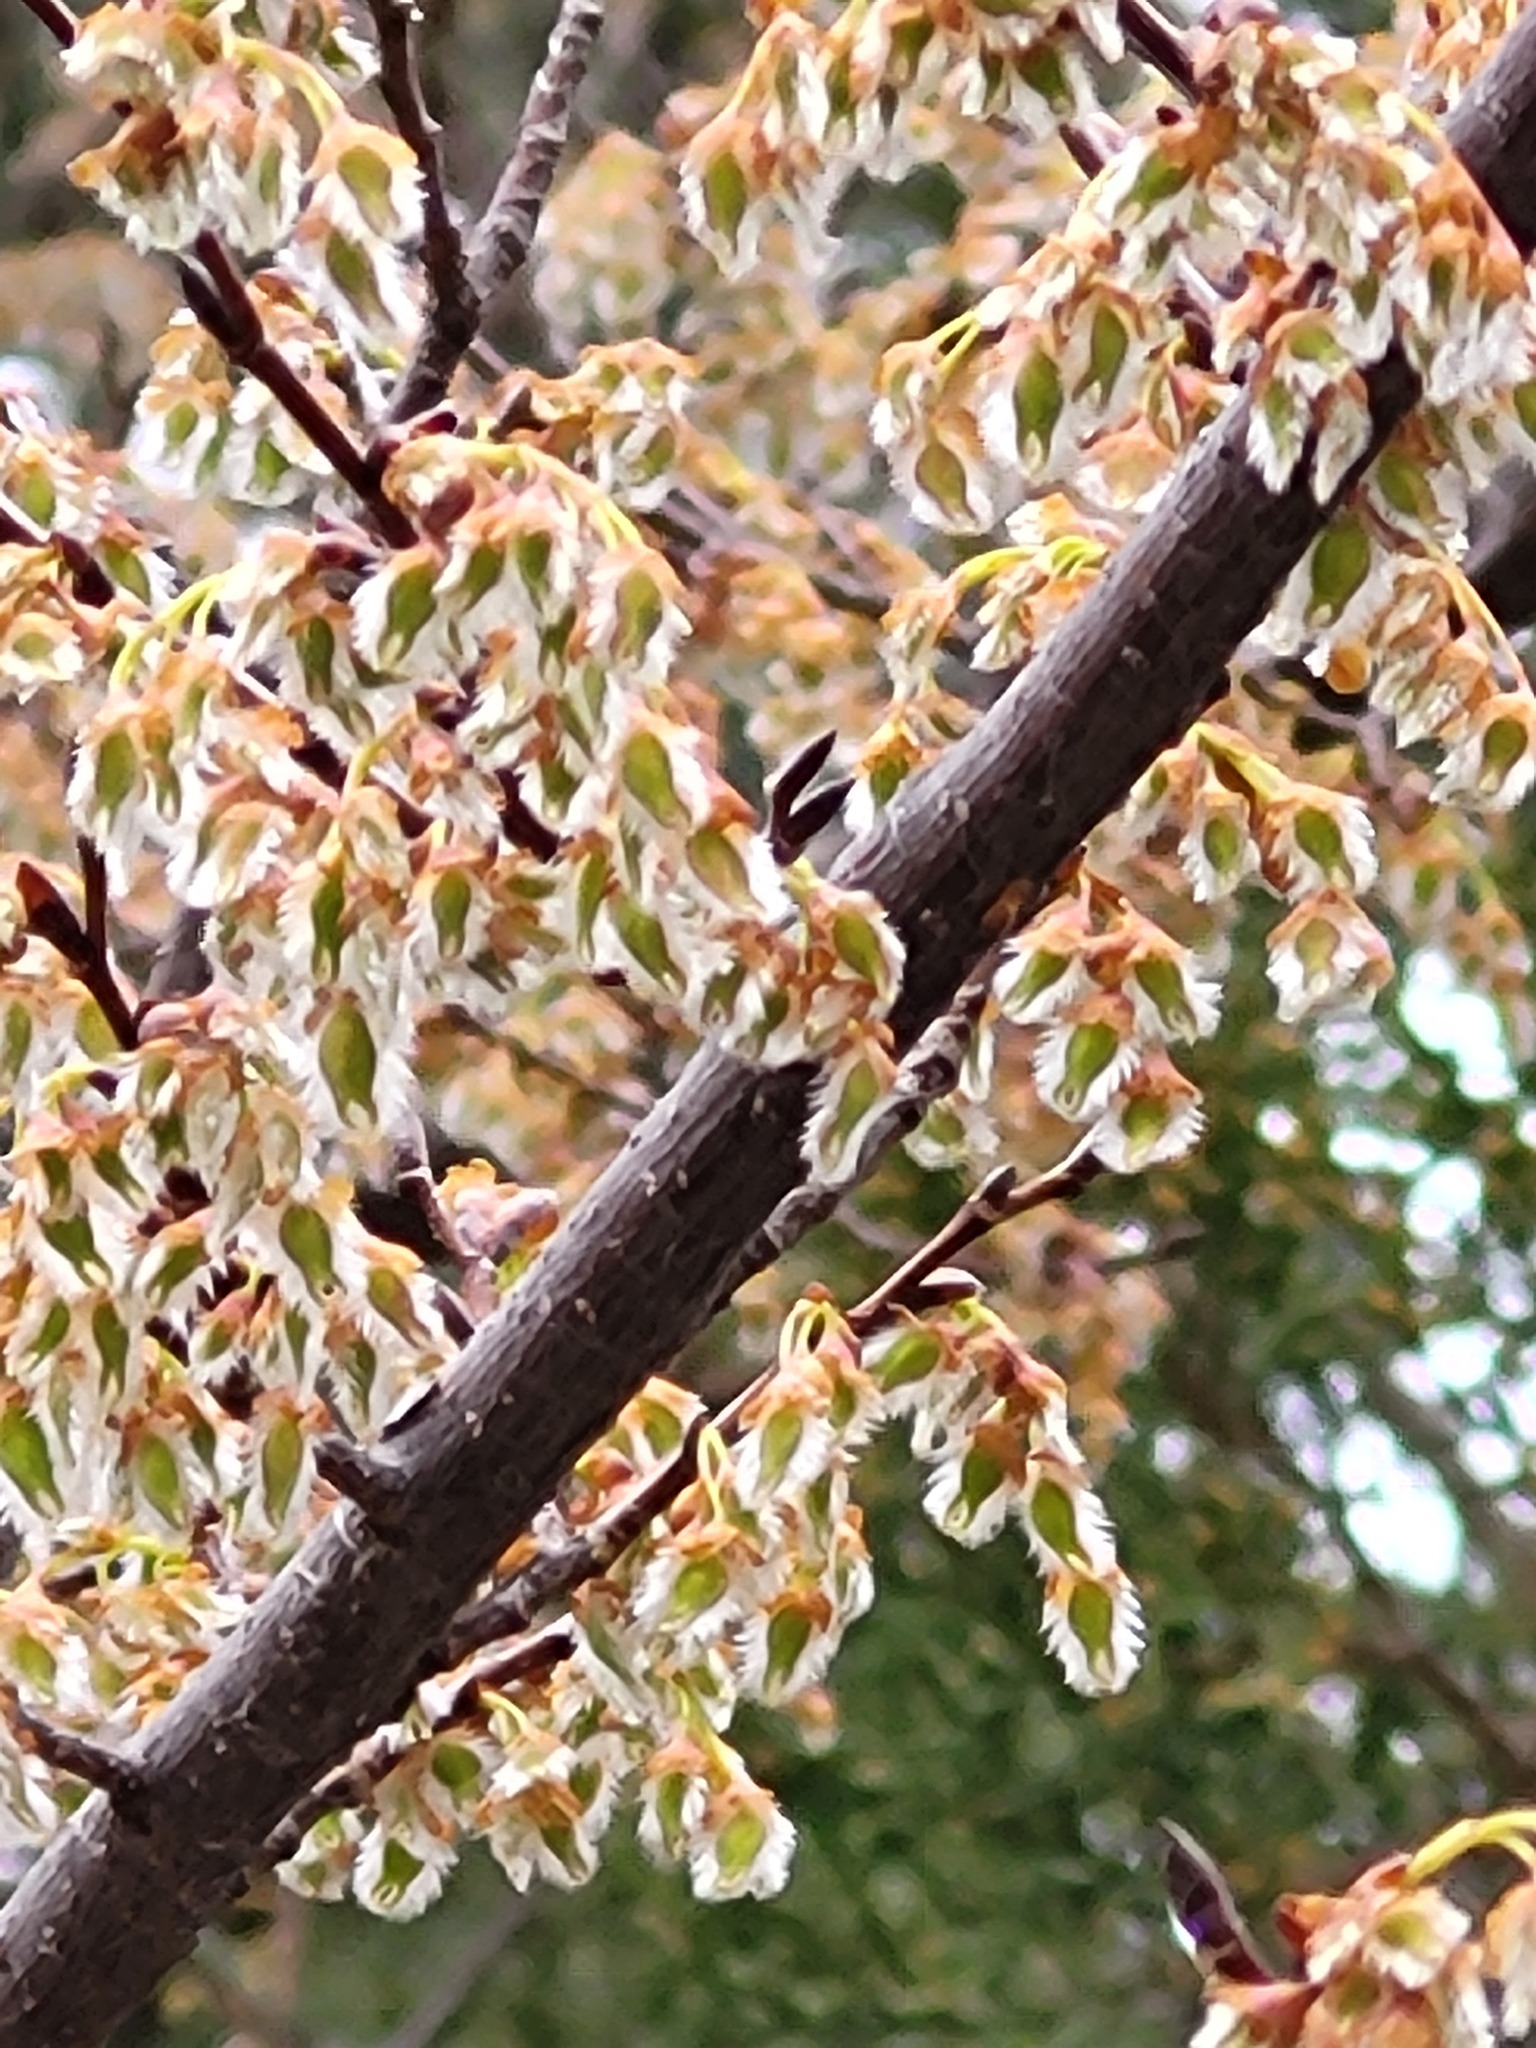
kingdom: Plantae
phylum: Tracheophyta
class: Magnoliopsida
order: Rosales
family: Ulmaceae
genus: Ulmus
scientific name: Ulmus americana
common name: American elm
